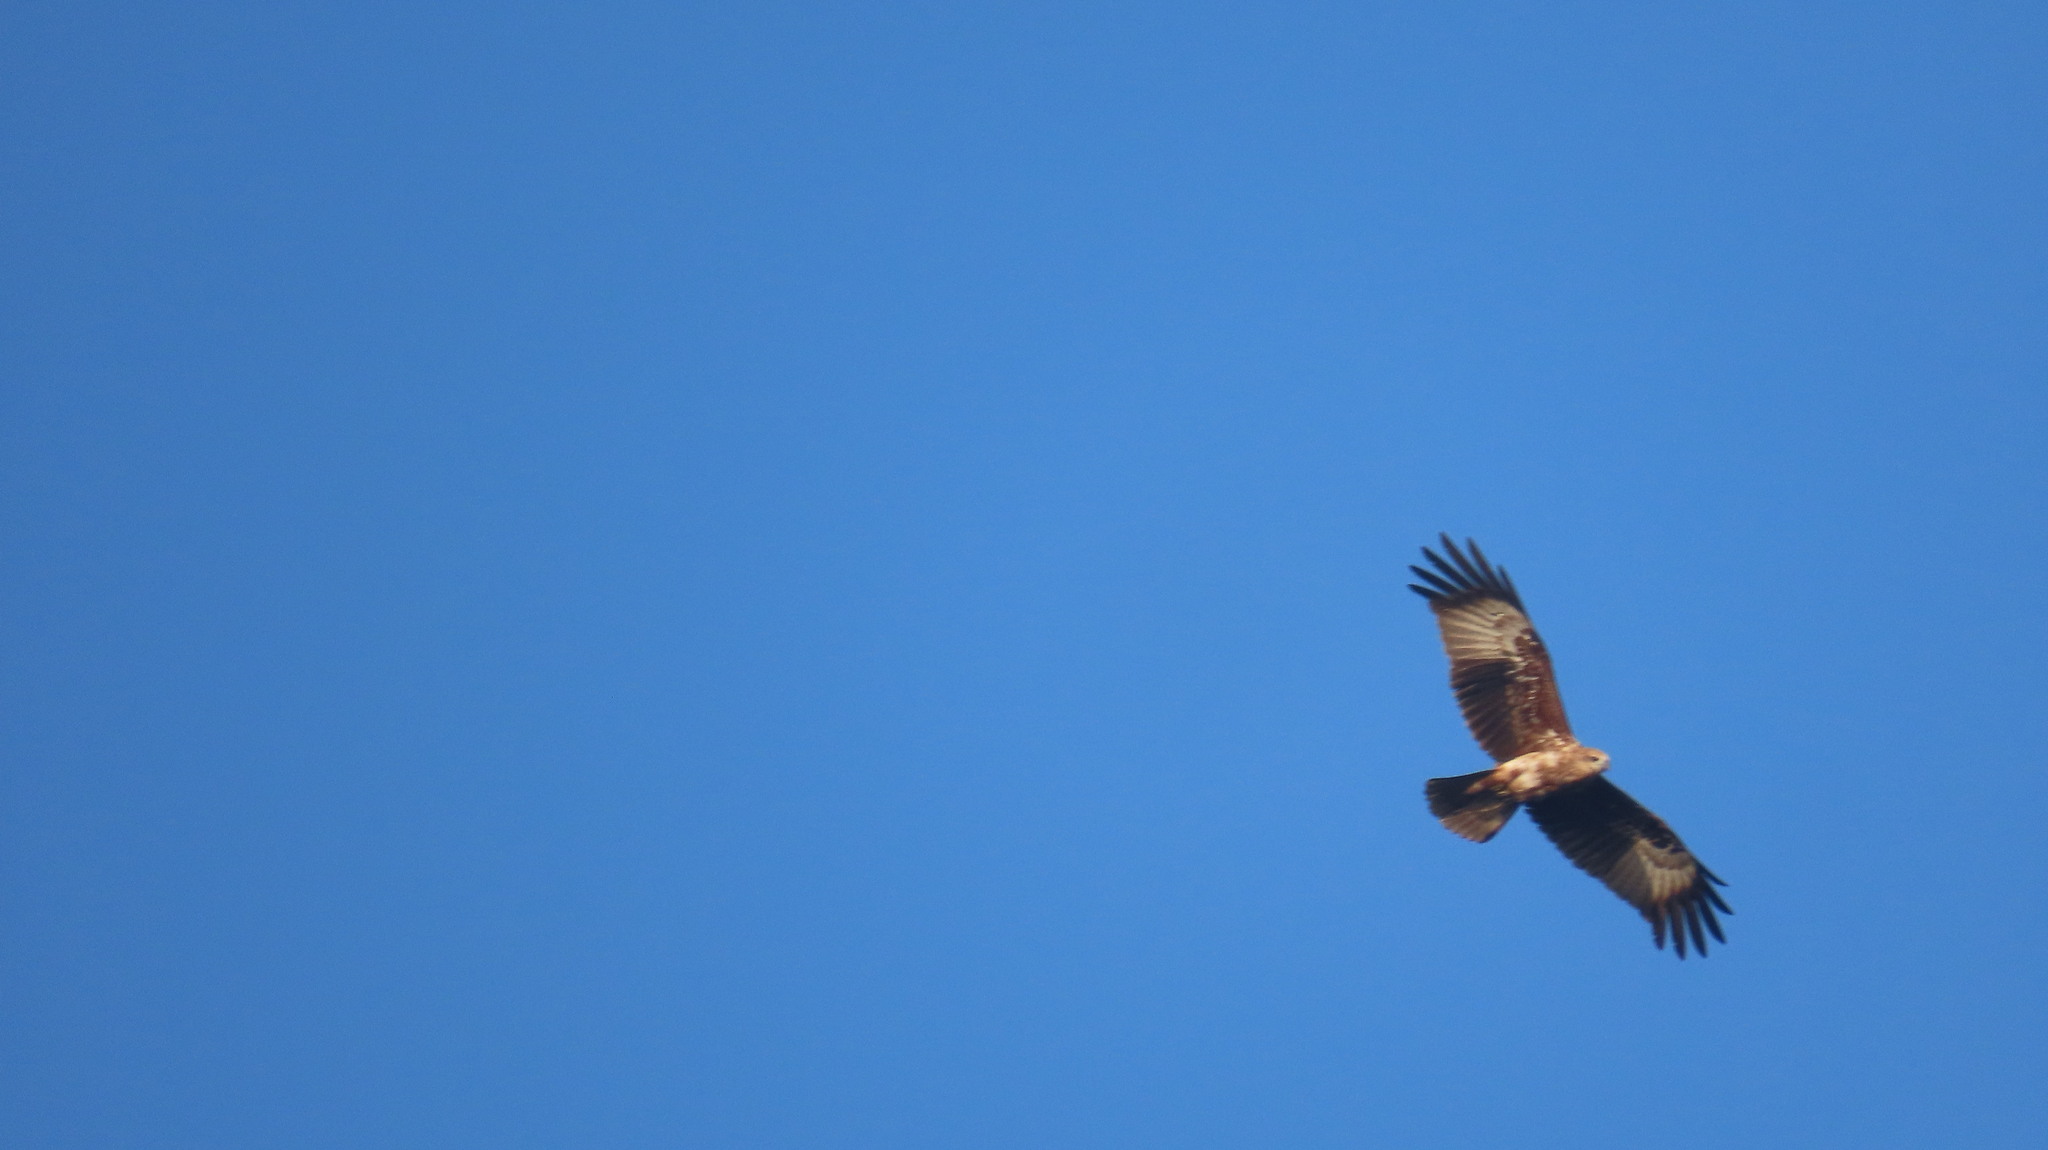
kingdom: Animalia
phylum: Chordata
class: Aves
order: Accipitriformes
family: Accipitridae
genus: Haliastur
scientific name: Haliastur indus
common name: Brahminy kite
